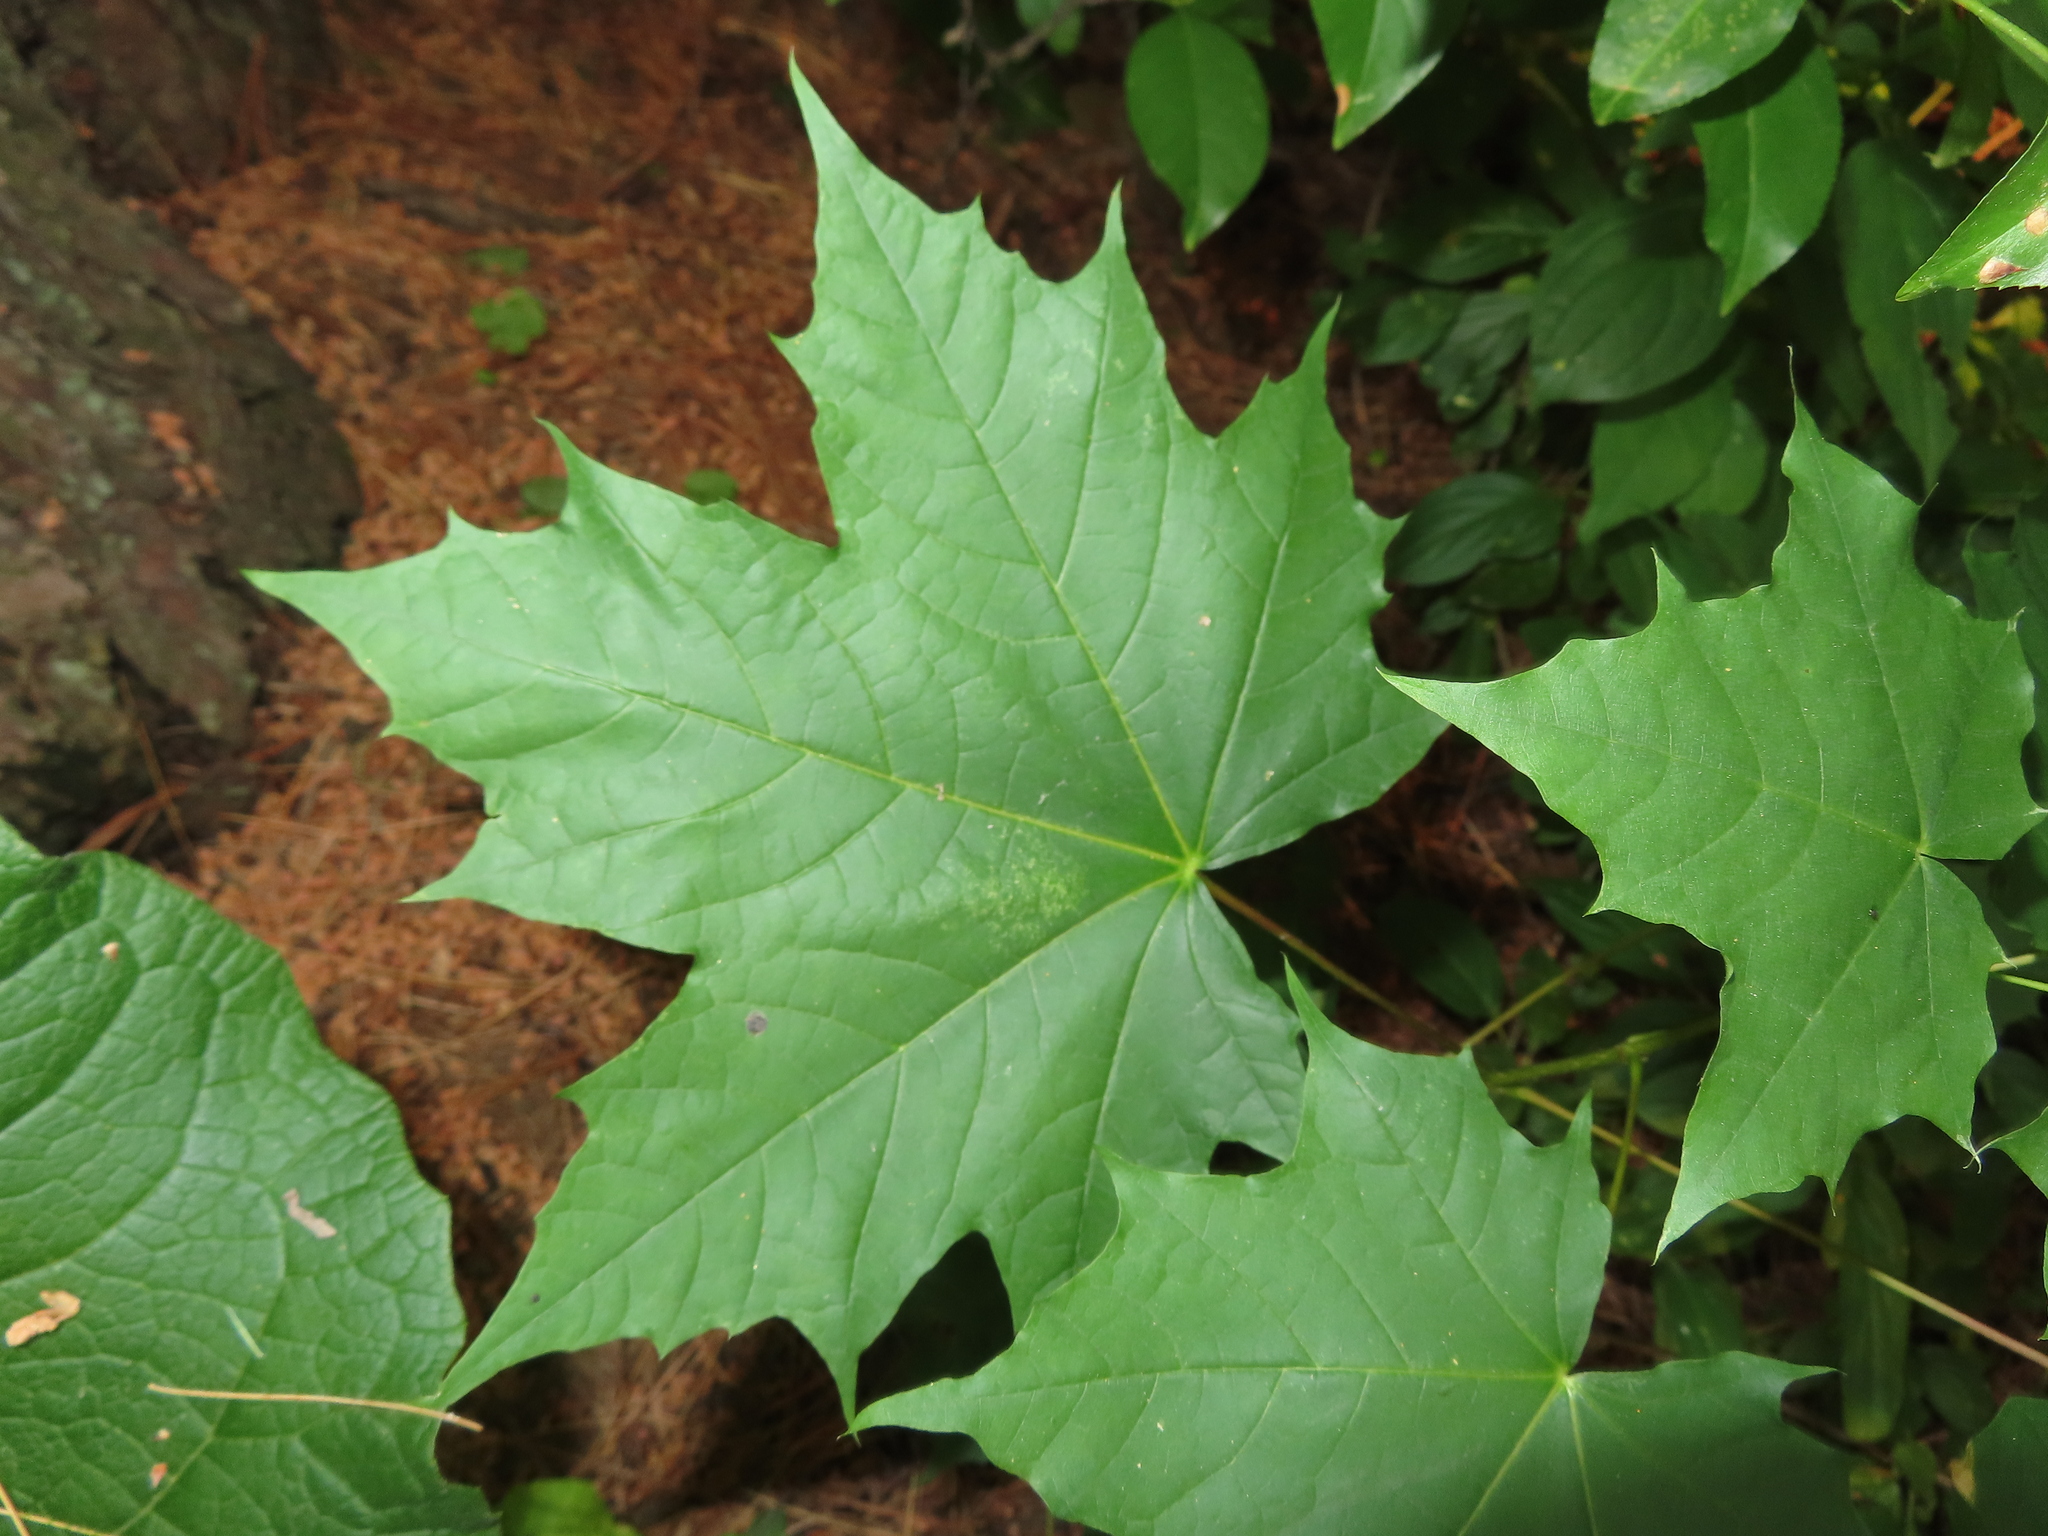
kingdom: Plantae
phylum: Tracheophyta
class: Magnoliopsida
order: Sapindales
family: Sapindaceae
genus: Acer
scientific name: Acer platanoides
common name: Norway maple
